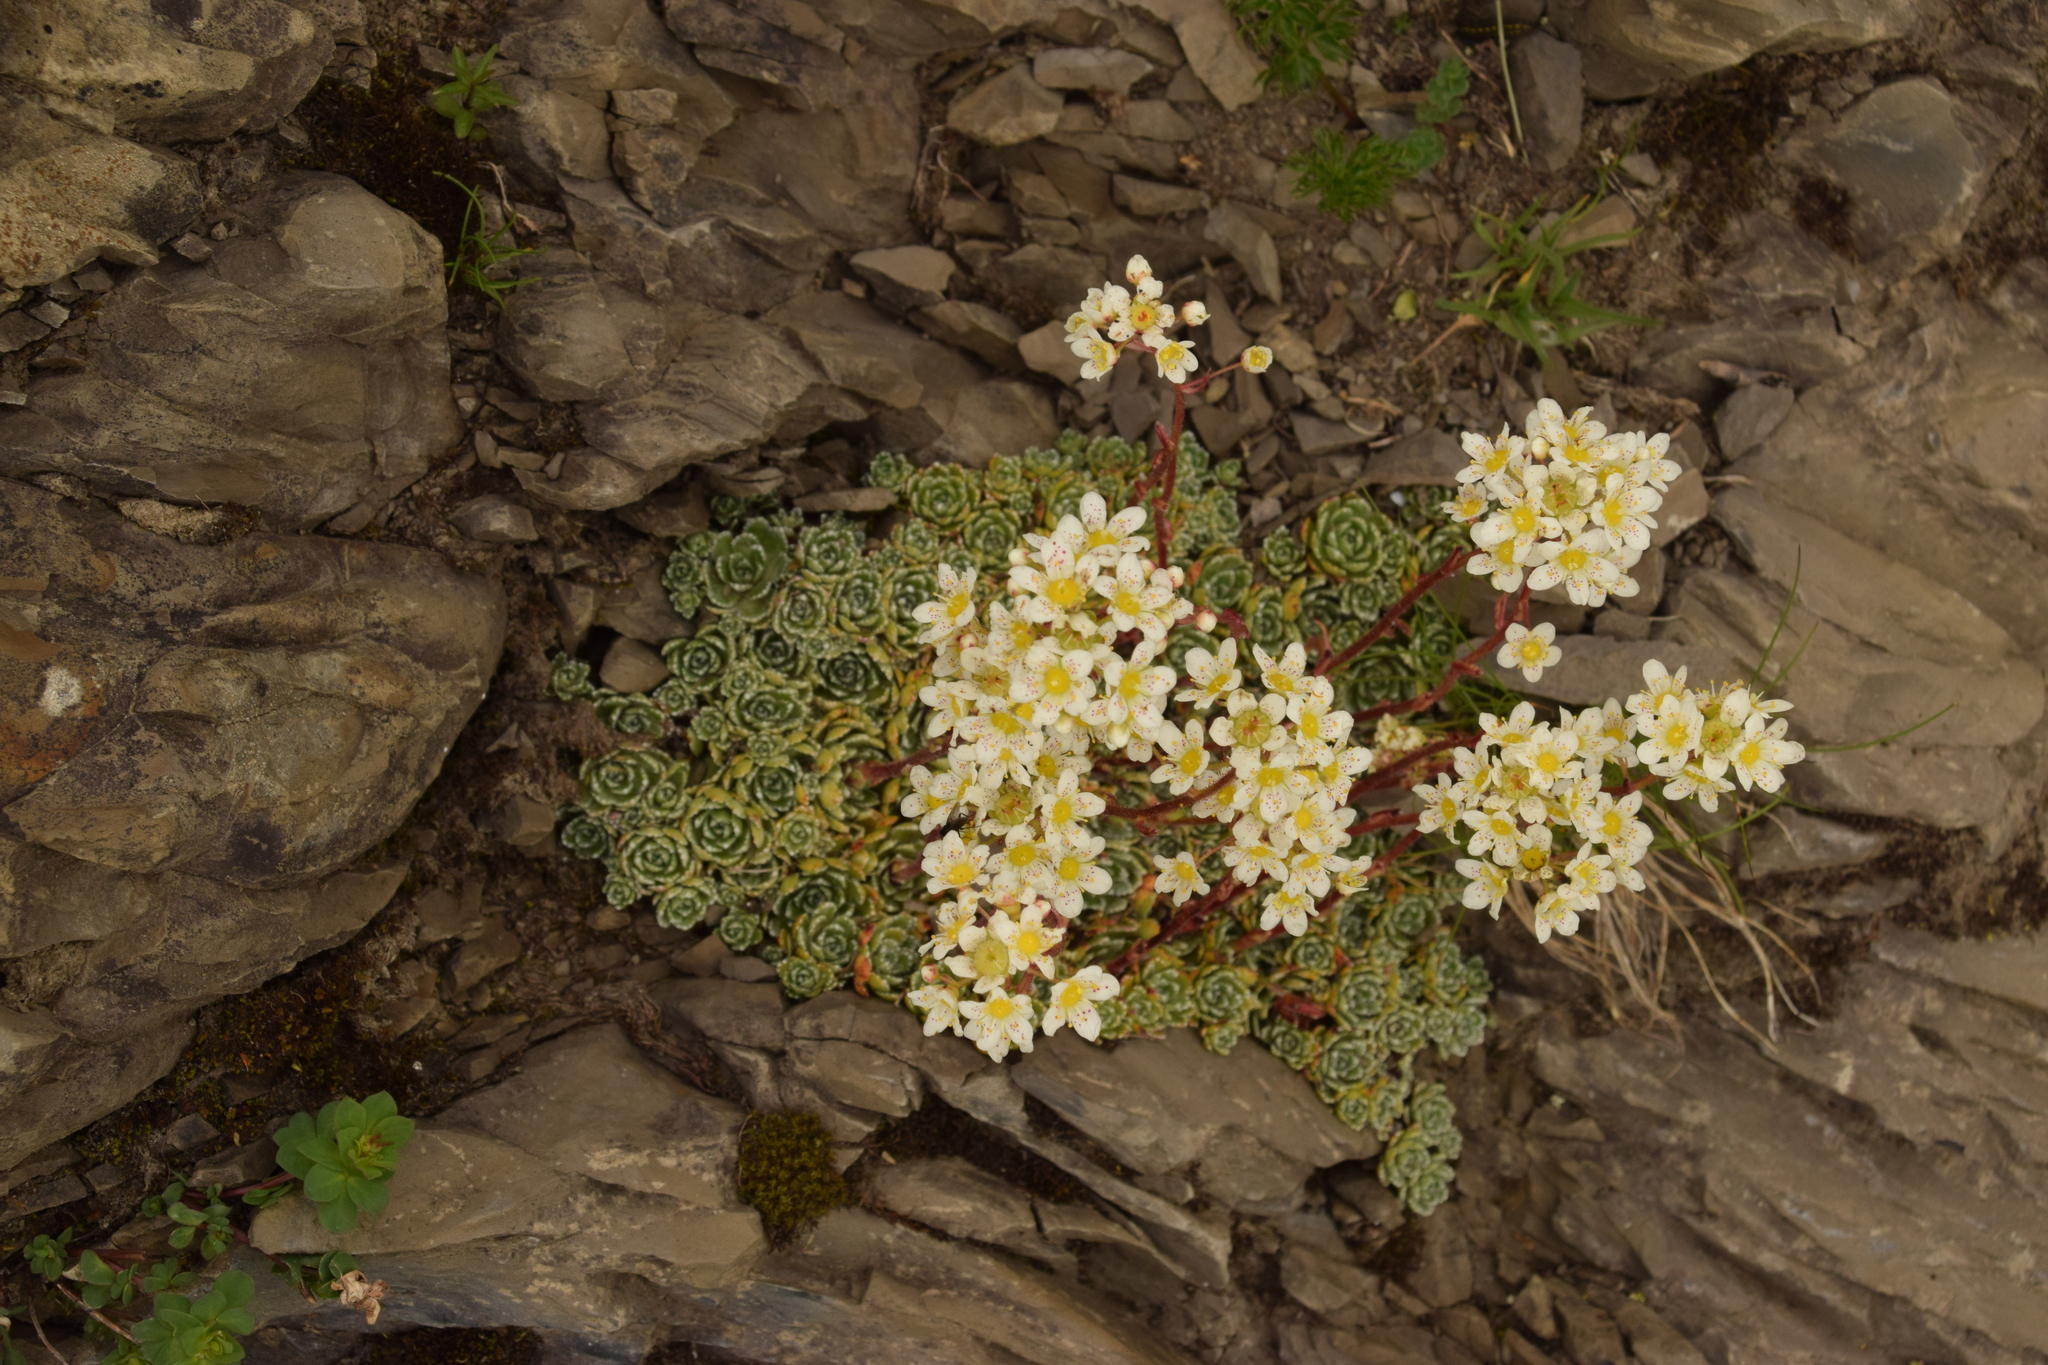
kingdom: Plantae
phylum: Tracheophyta
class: Magnoliopsida
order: Saxifragales
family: Saxifragaceae
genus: Saxifraga
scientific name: Saxifraga paniculata
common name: Livelong saxifrage
